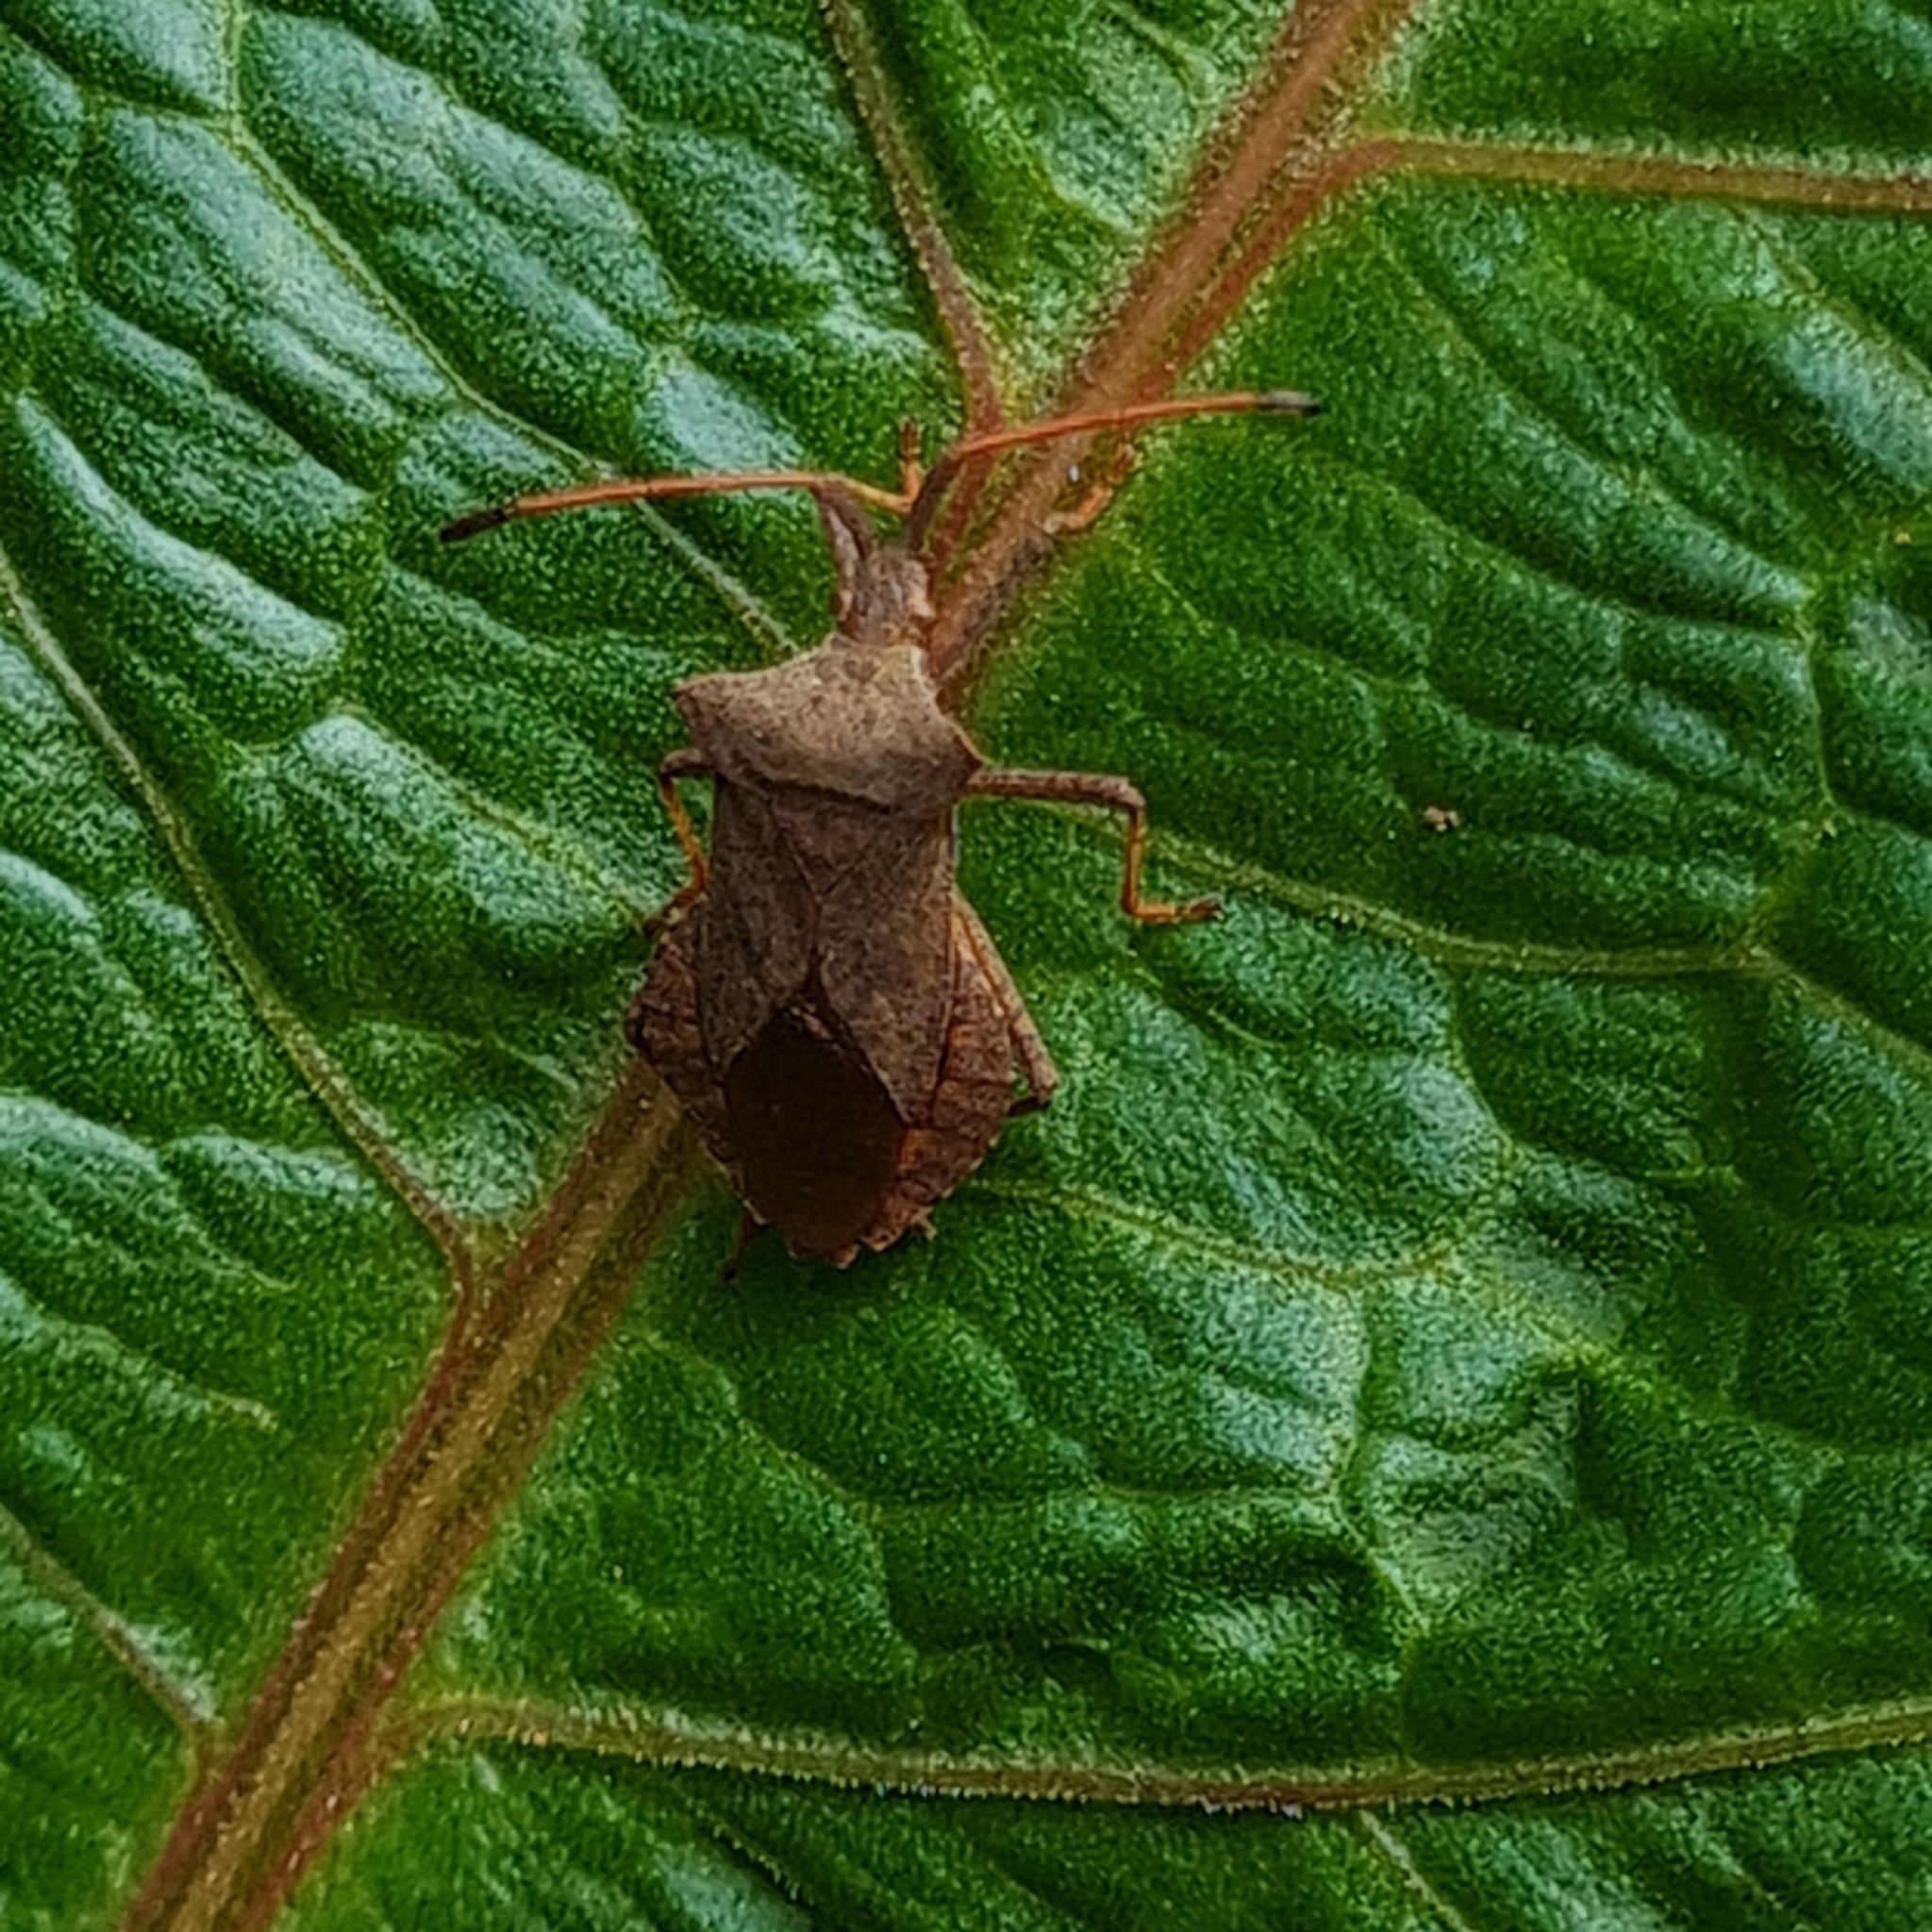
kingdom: Animalia
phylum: Arthropoda
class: Insecta
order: Hemiptera
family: Coreidae
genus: Coreus
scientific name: Coreus marginatus
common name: Dock bug
